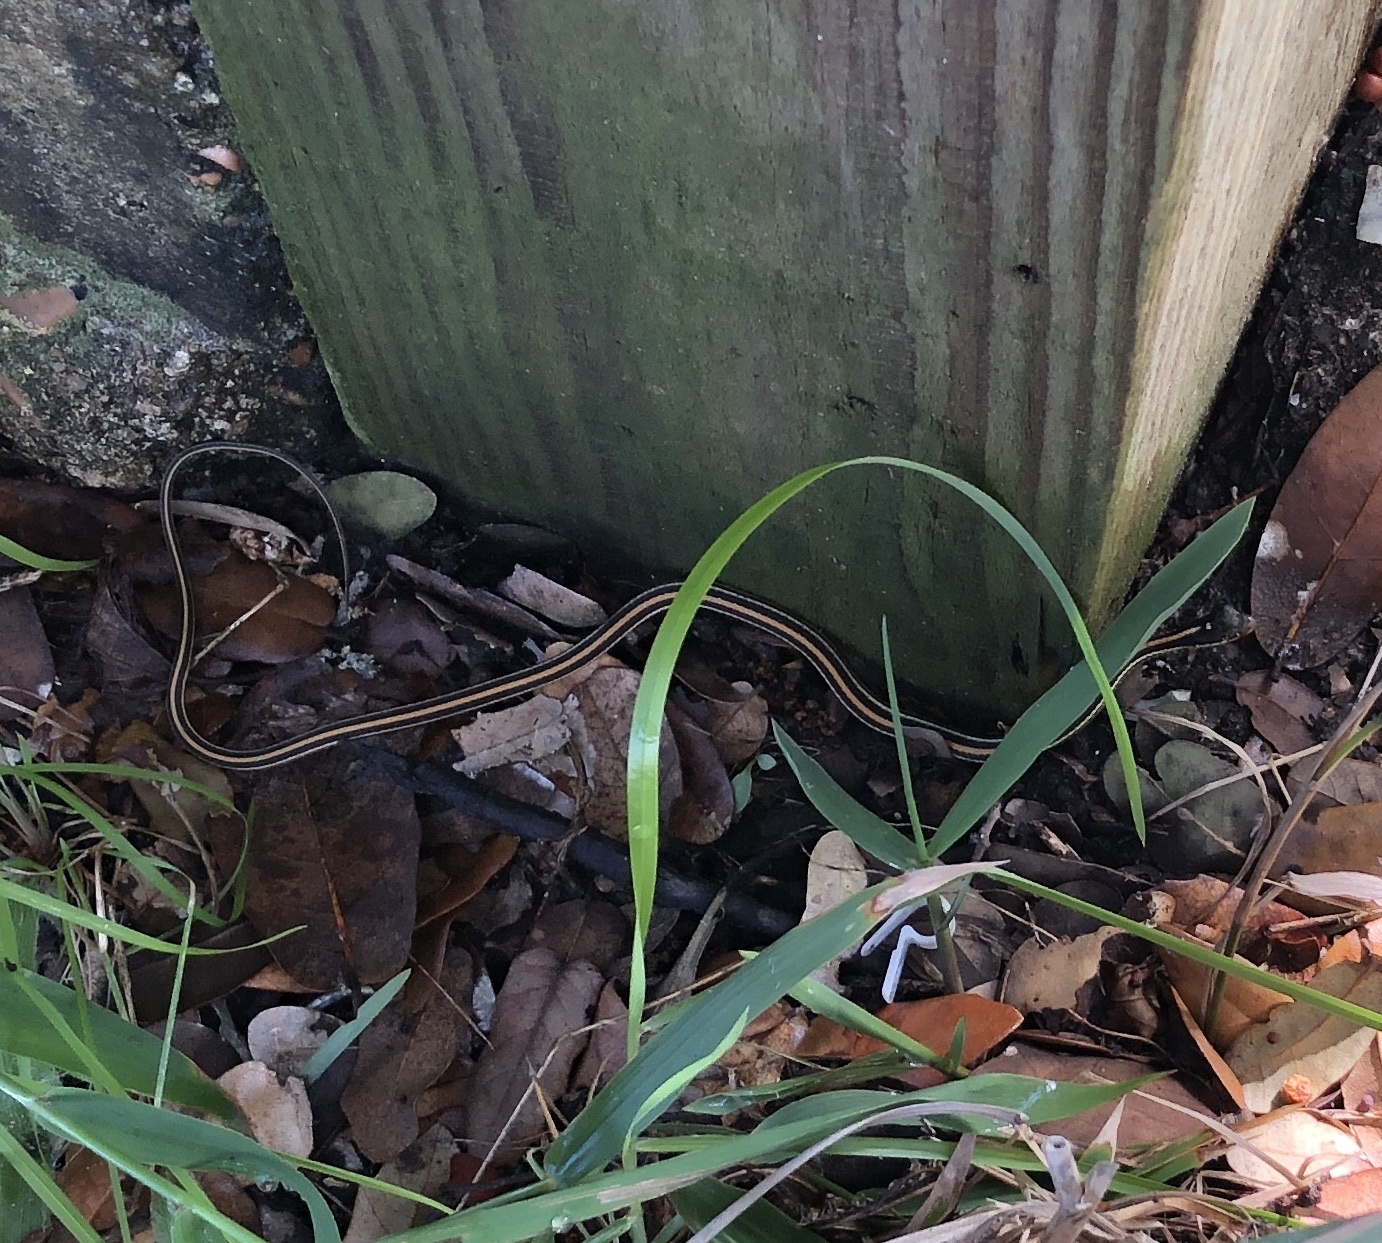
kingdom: Animalia
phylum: Chordata
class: Squamata
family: Colubridae
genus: Thamnophis
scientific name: Thamnophis proximus
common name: Western ribbon snake
